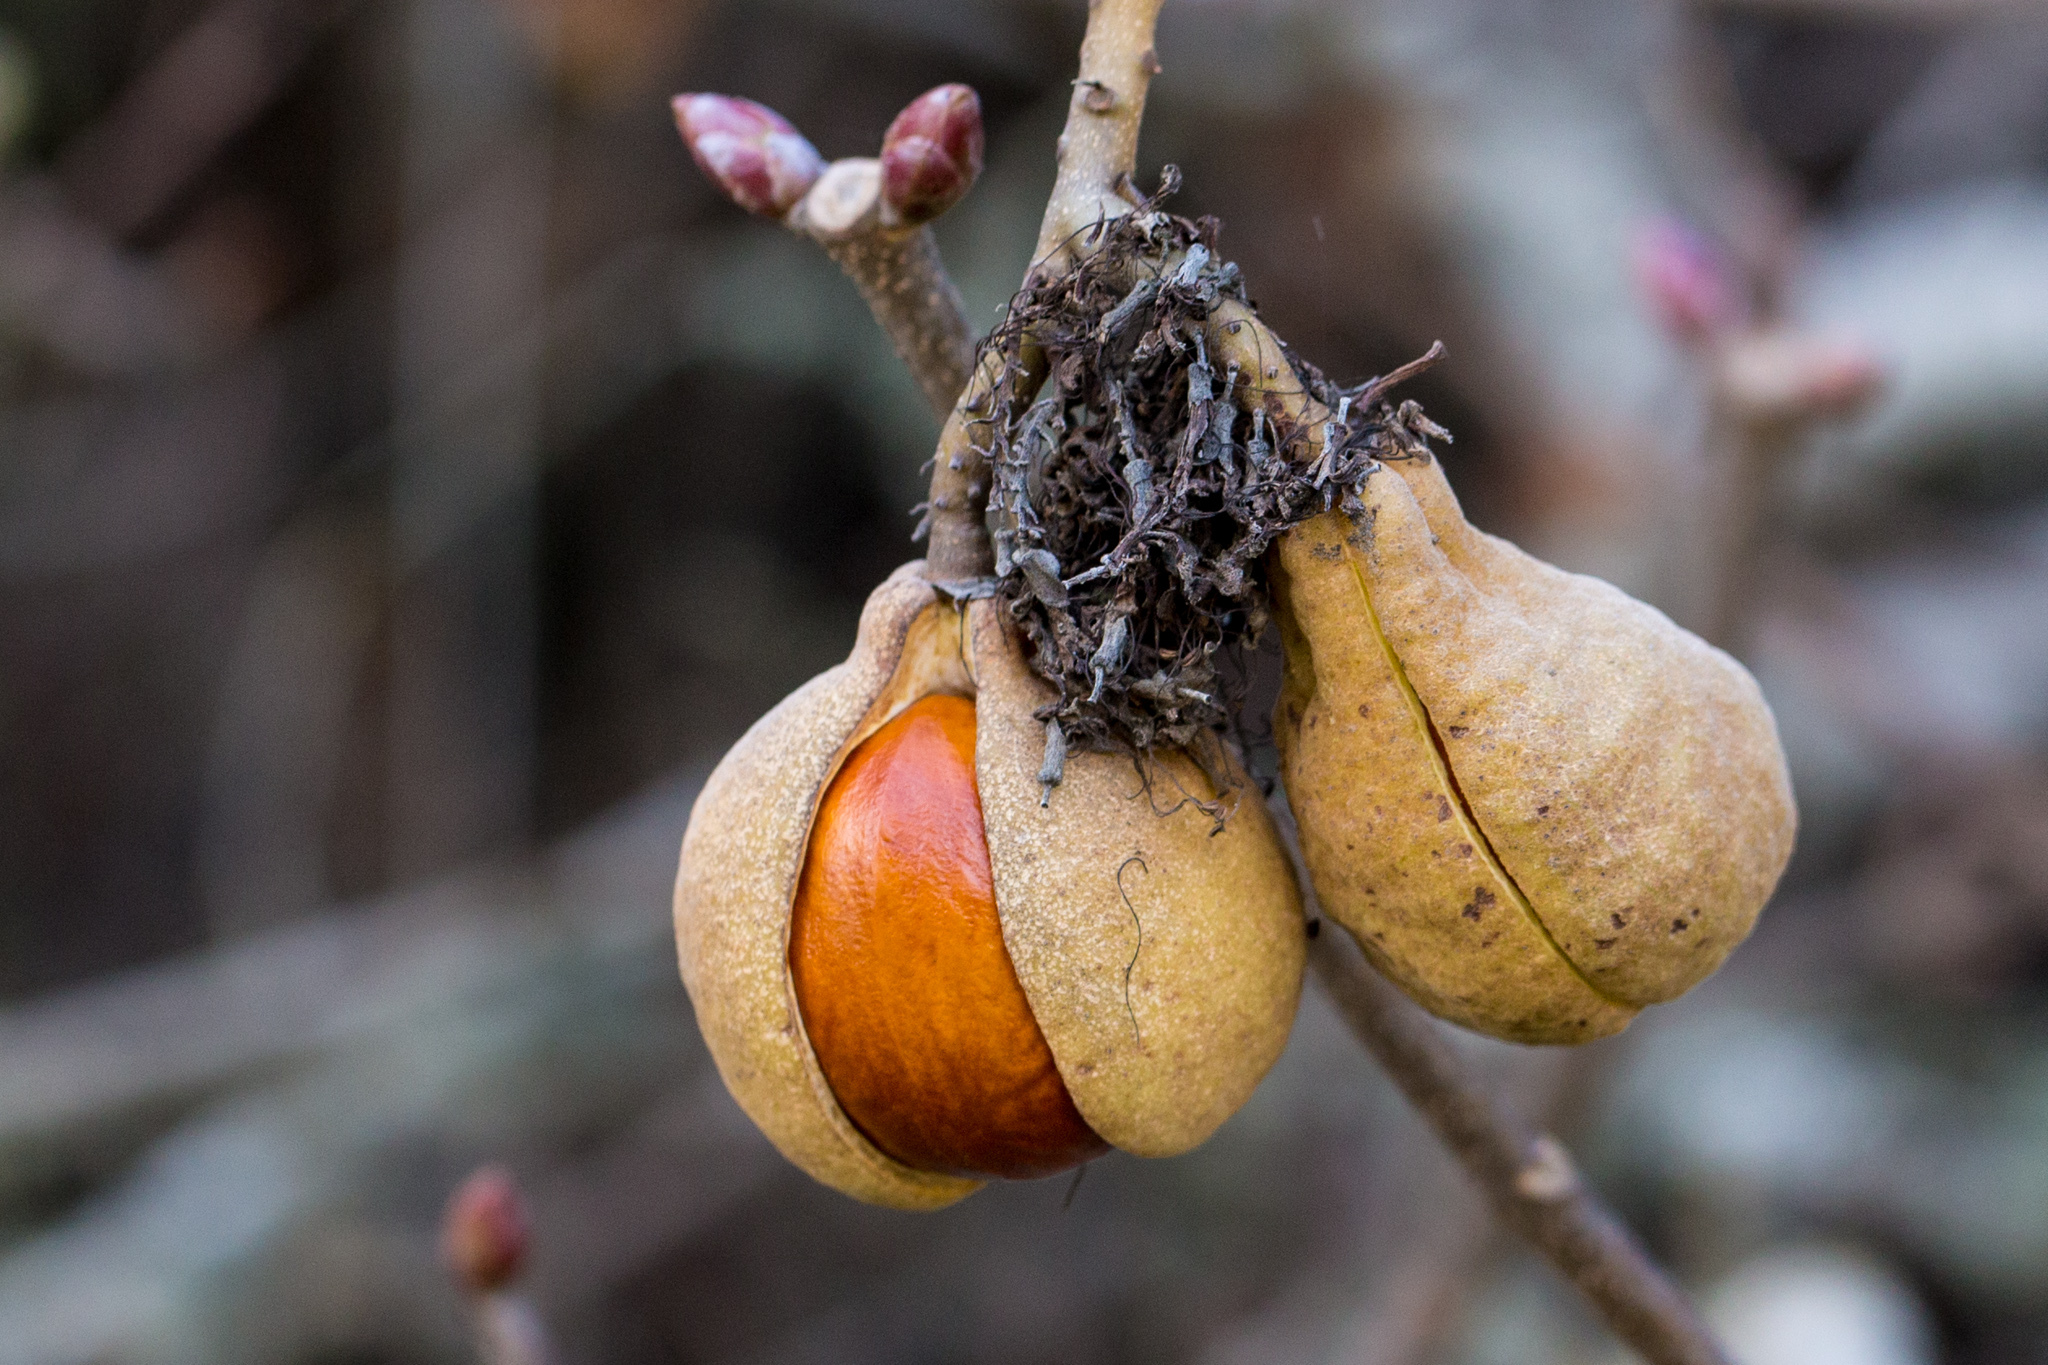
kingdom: Plantae
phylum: Tracheophyta
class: Magnoliopsida
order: Sapindales
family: Sapindaceae
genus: Aesculus
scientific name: Aesculus californica
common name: California buckeye
